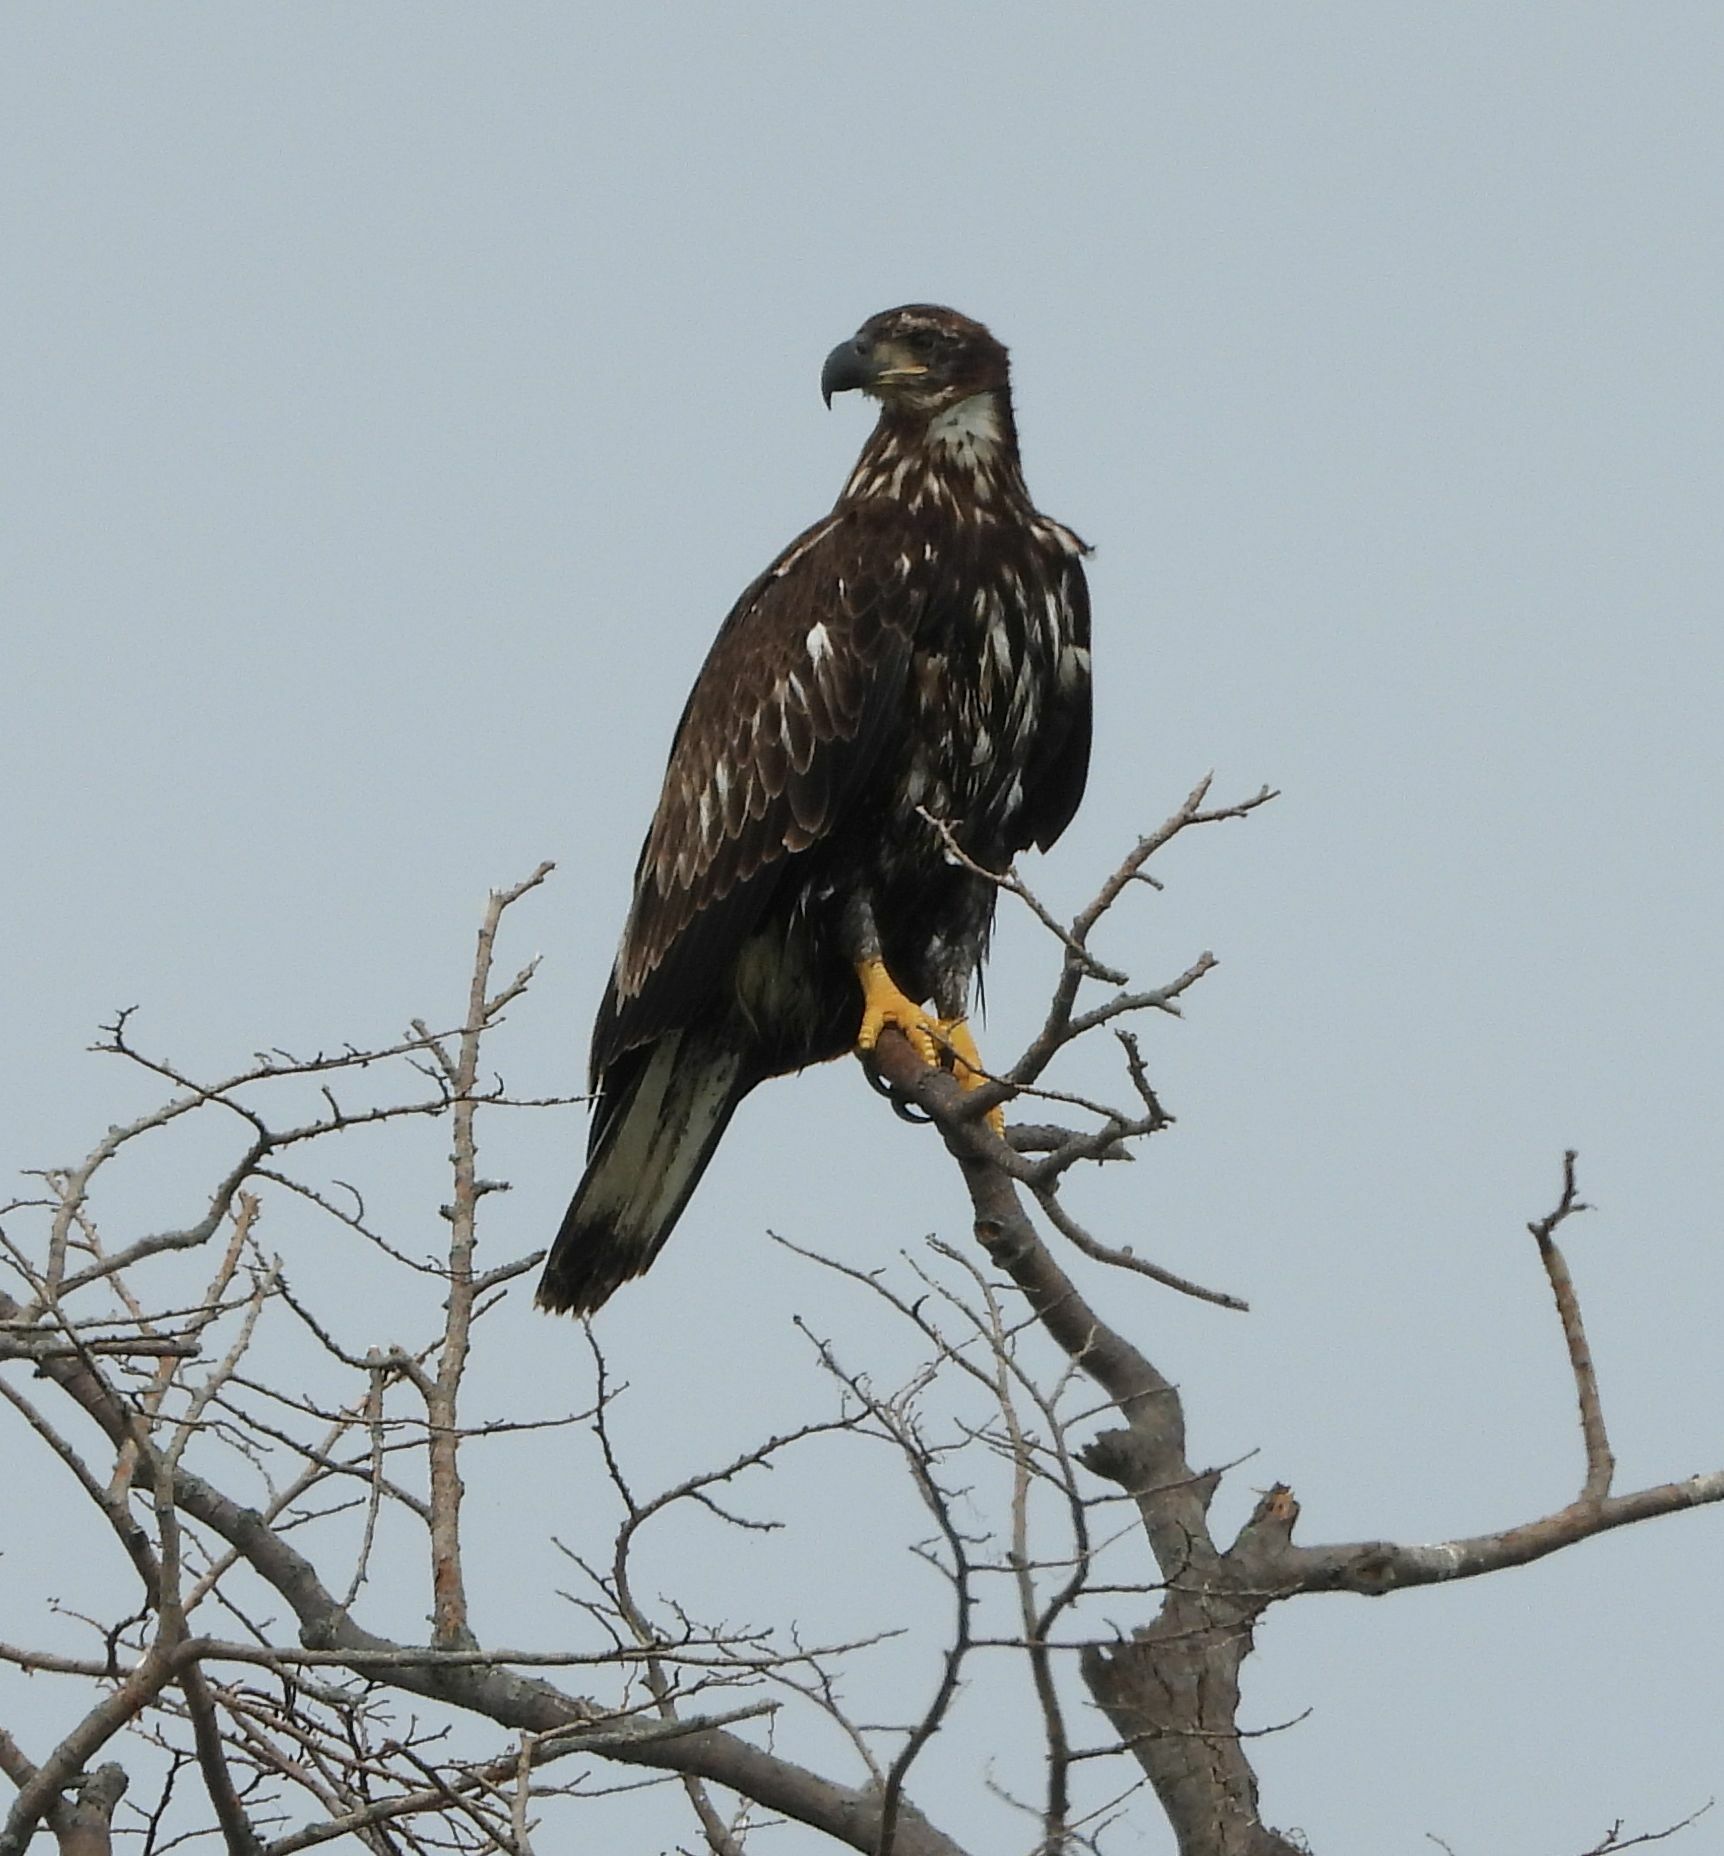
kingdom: Animalia
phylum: Chordata
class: Aves
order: Accipitriformes
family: Accipitridae
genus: Haliaeetus
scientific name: Haliaeetus leucocephalus
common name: Bald eagle
